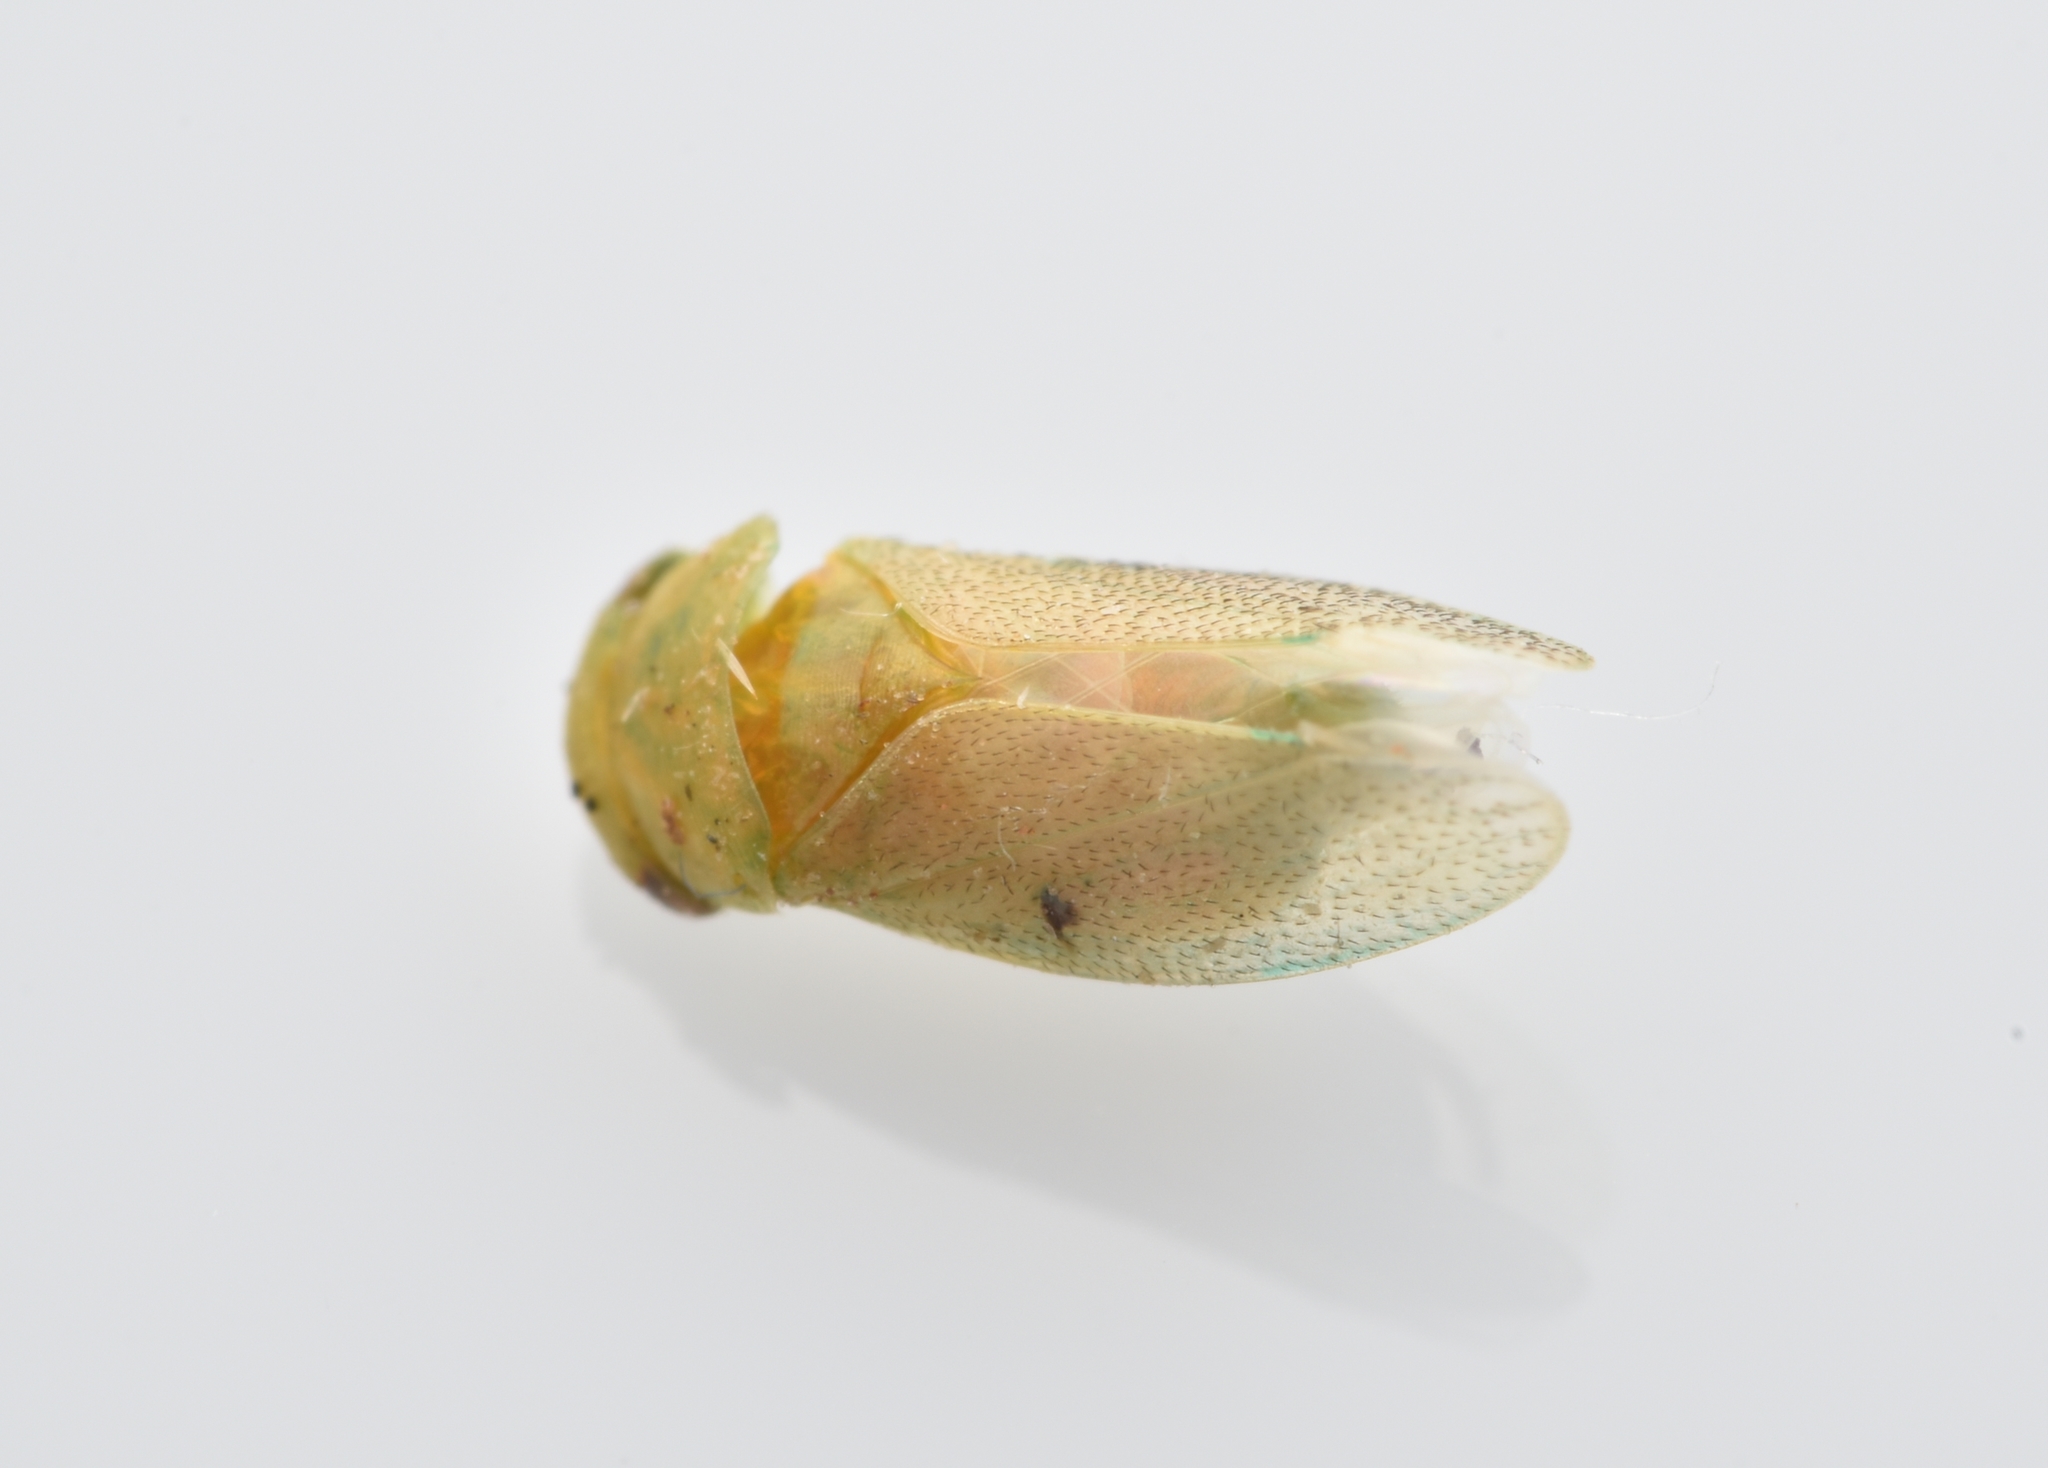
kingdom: Animalia
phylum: Arthropoda
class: Insecta
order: Hemiptera
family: Cicadellidae
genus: Penestragania
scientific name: Penestragania robusta
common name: Robust leafhopper
